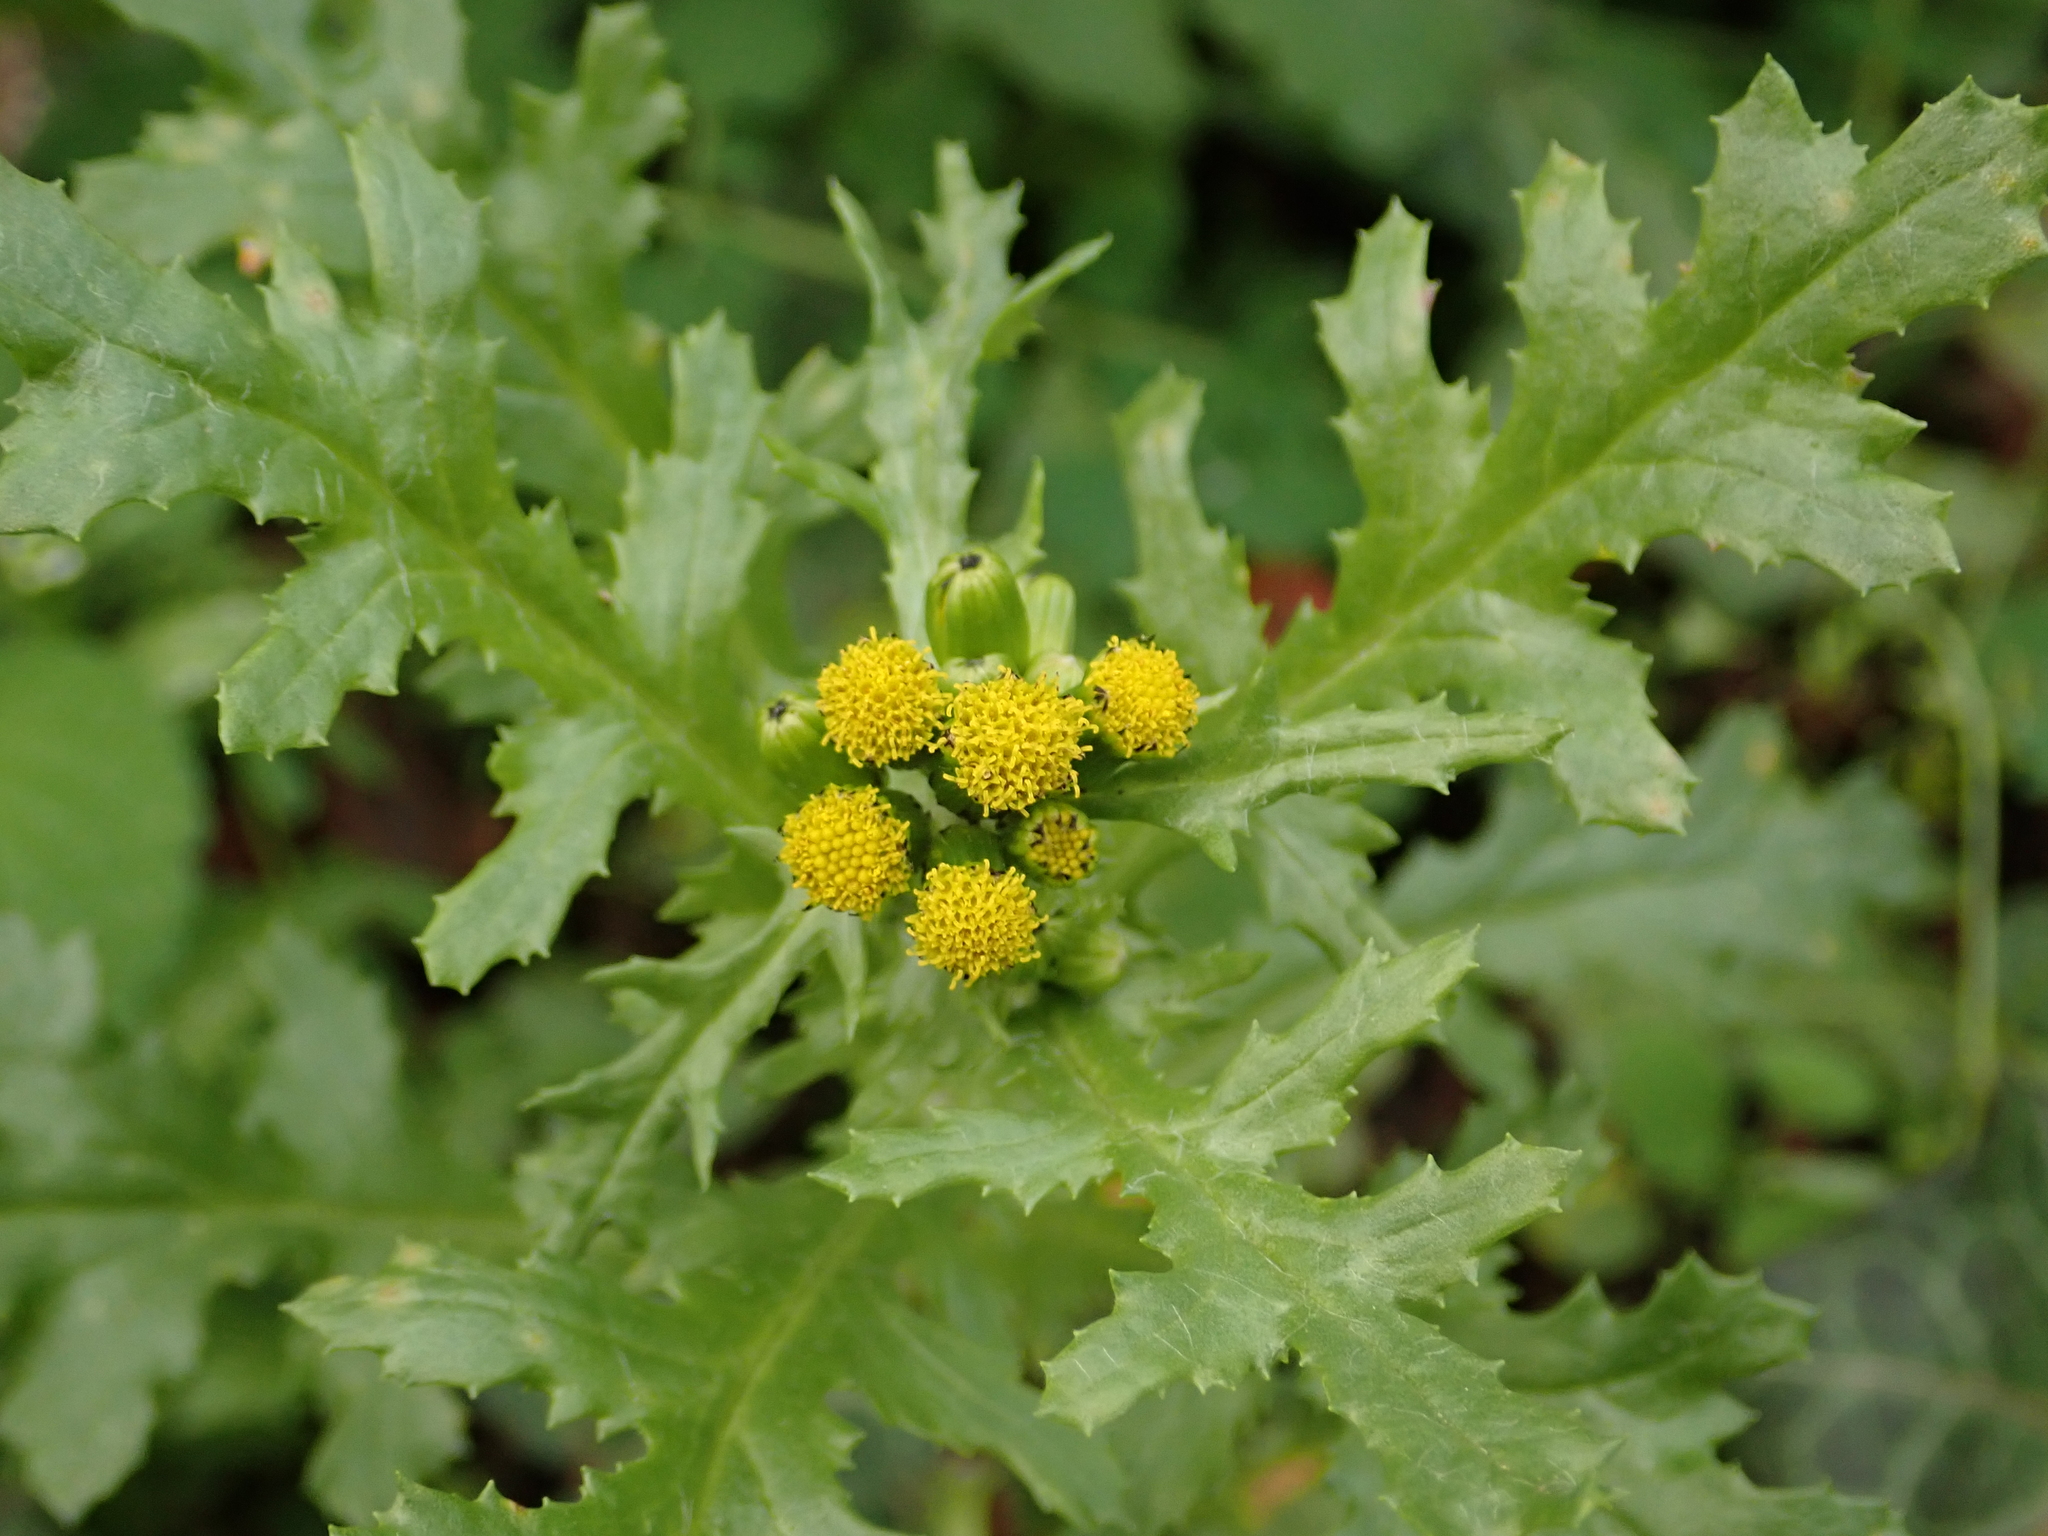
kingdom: Plantae
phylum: Tracheophyta
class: Magnoliopsida
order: Asterales
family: Asteraceae
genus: Senecio
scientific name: Senecio vulgaris
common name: Old-man-in-the-spring
